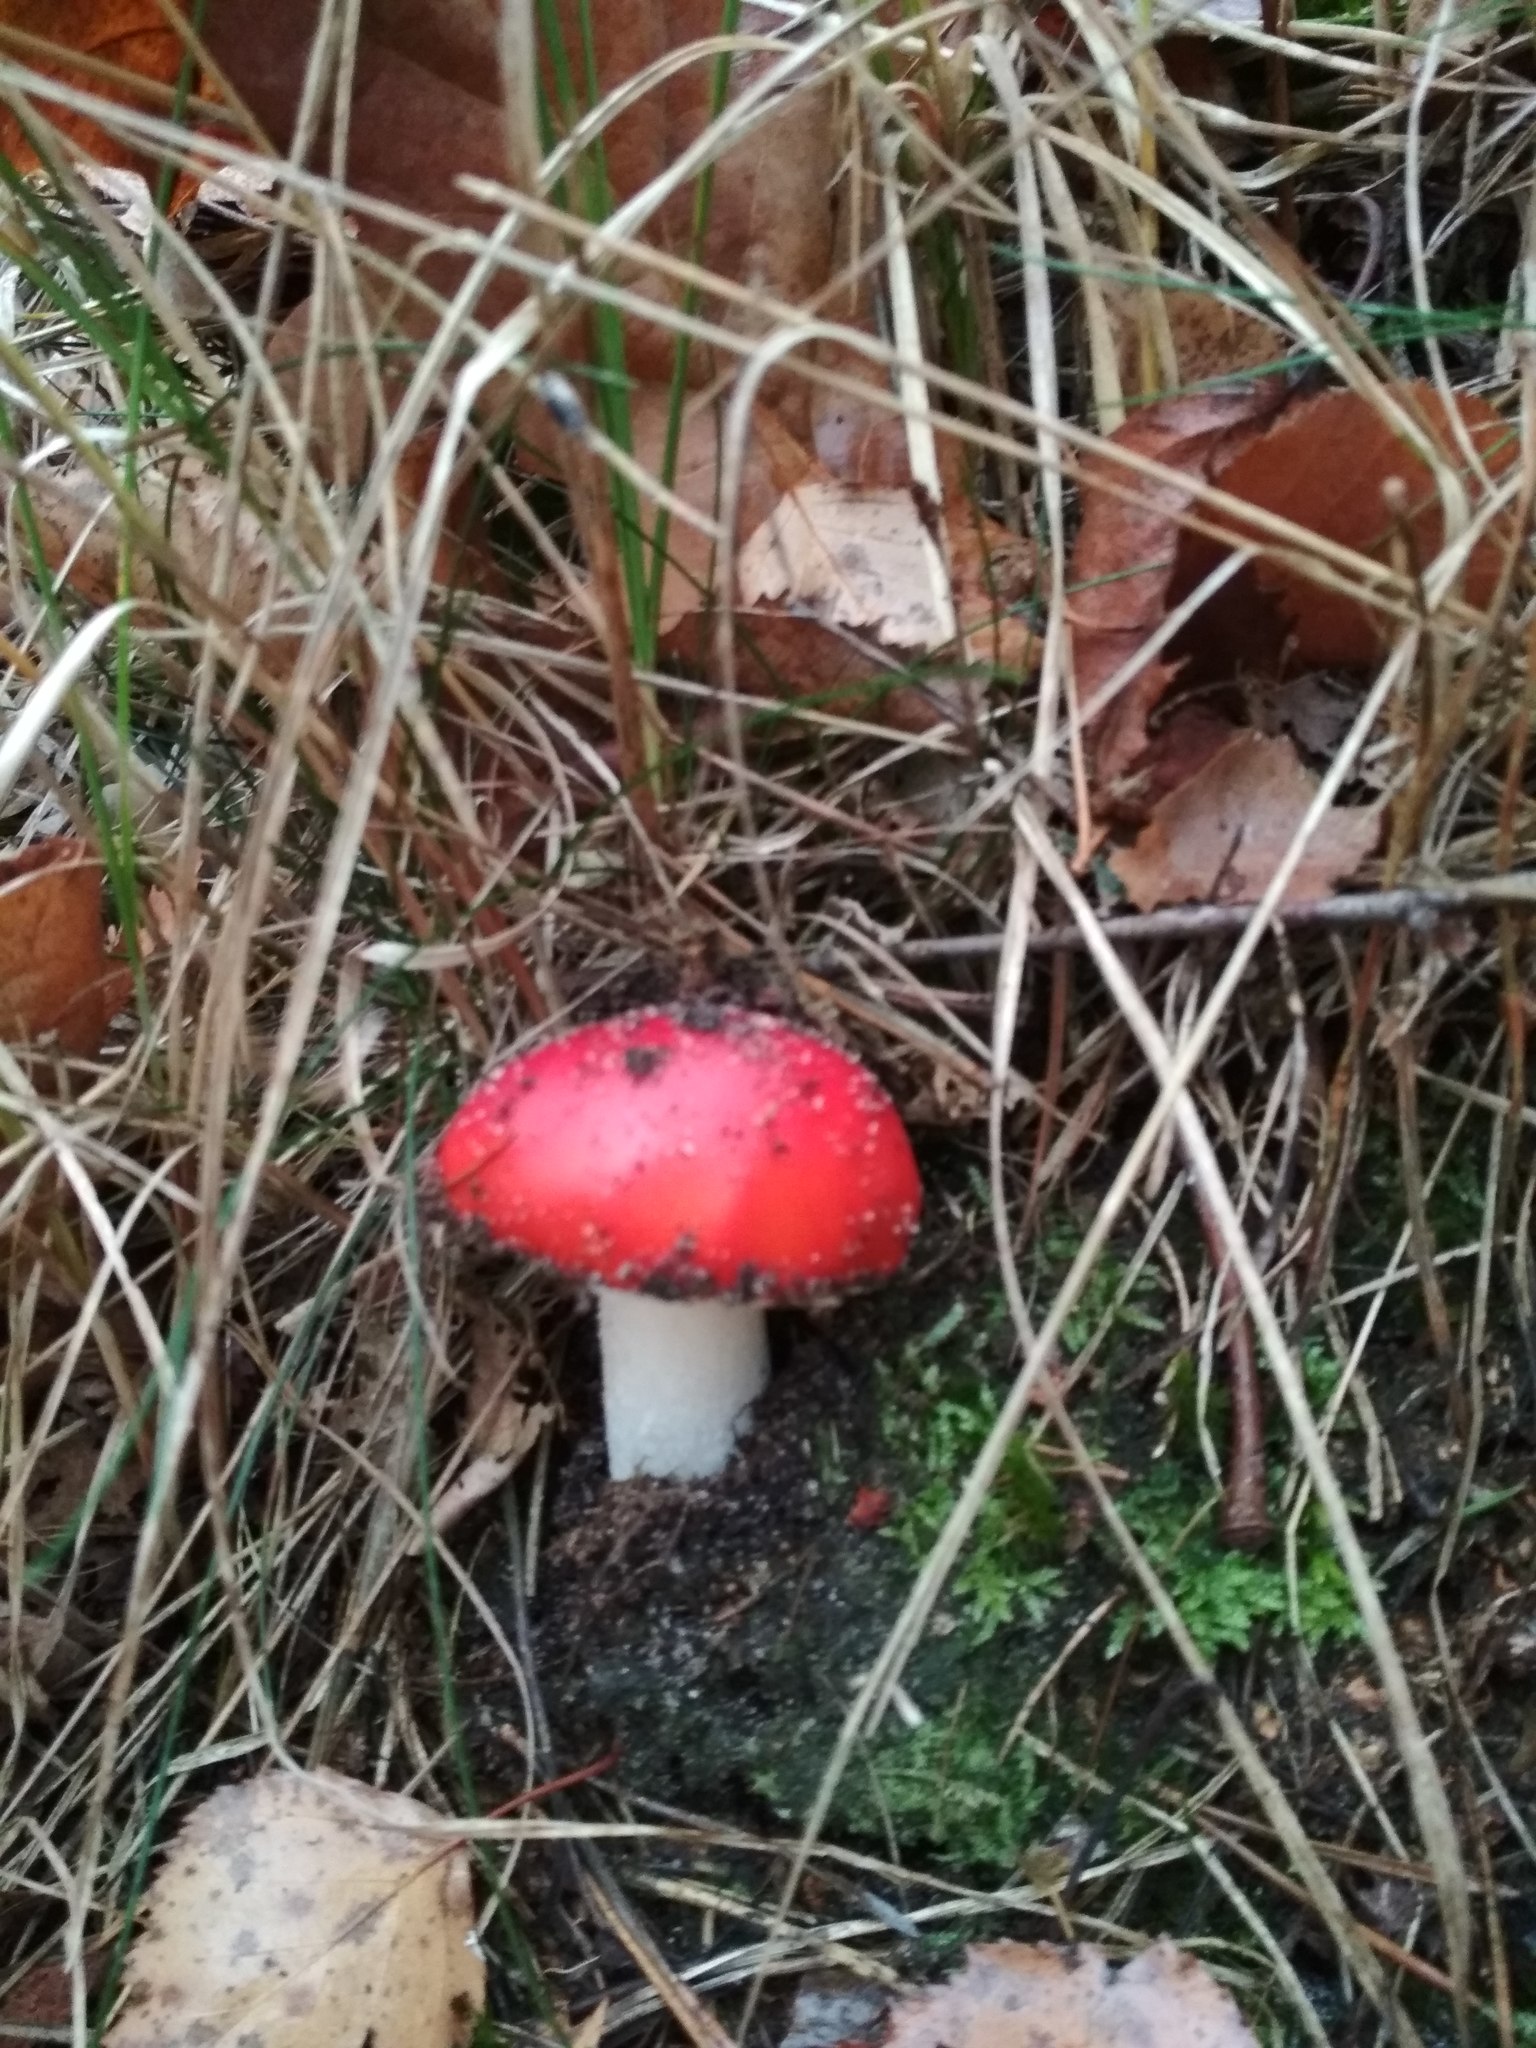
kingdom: Fungi
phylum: Basidiomycota
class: Agaricomycetes
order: Agaricales
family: Amanitaceae
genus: Amanita
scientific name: Amanita muscaria
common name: Fly agaric
